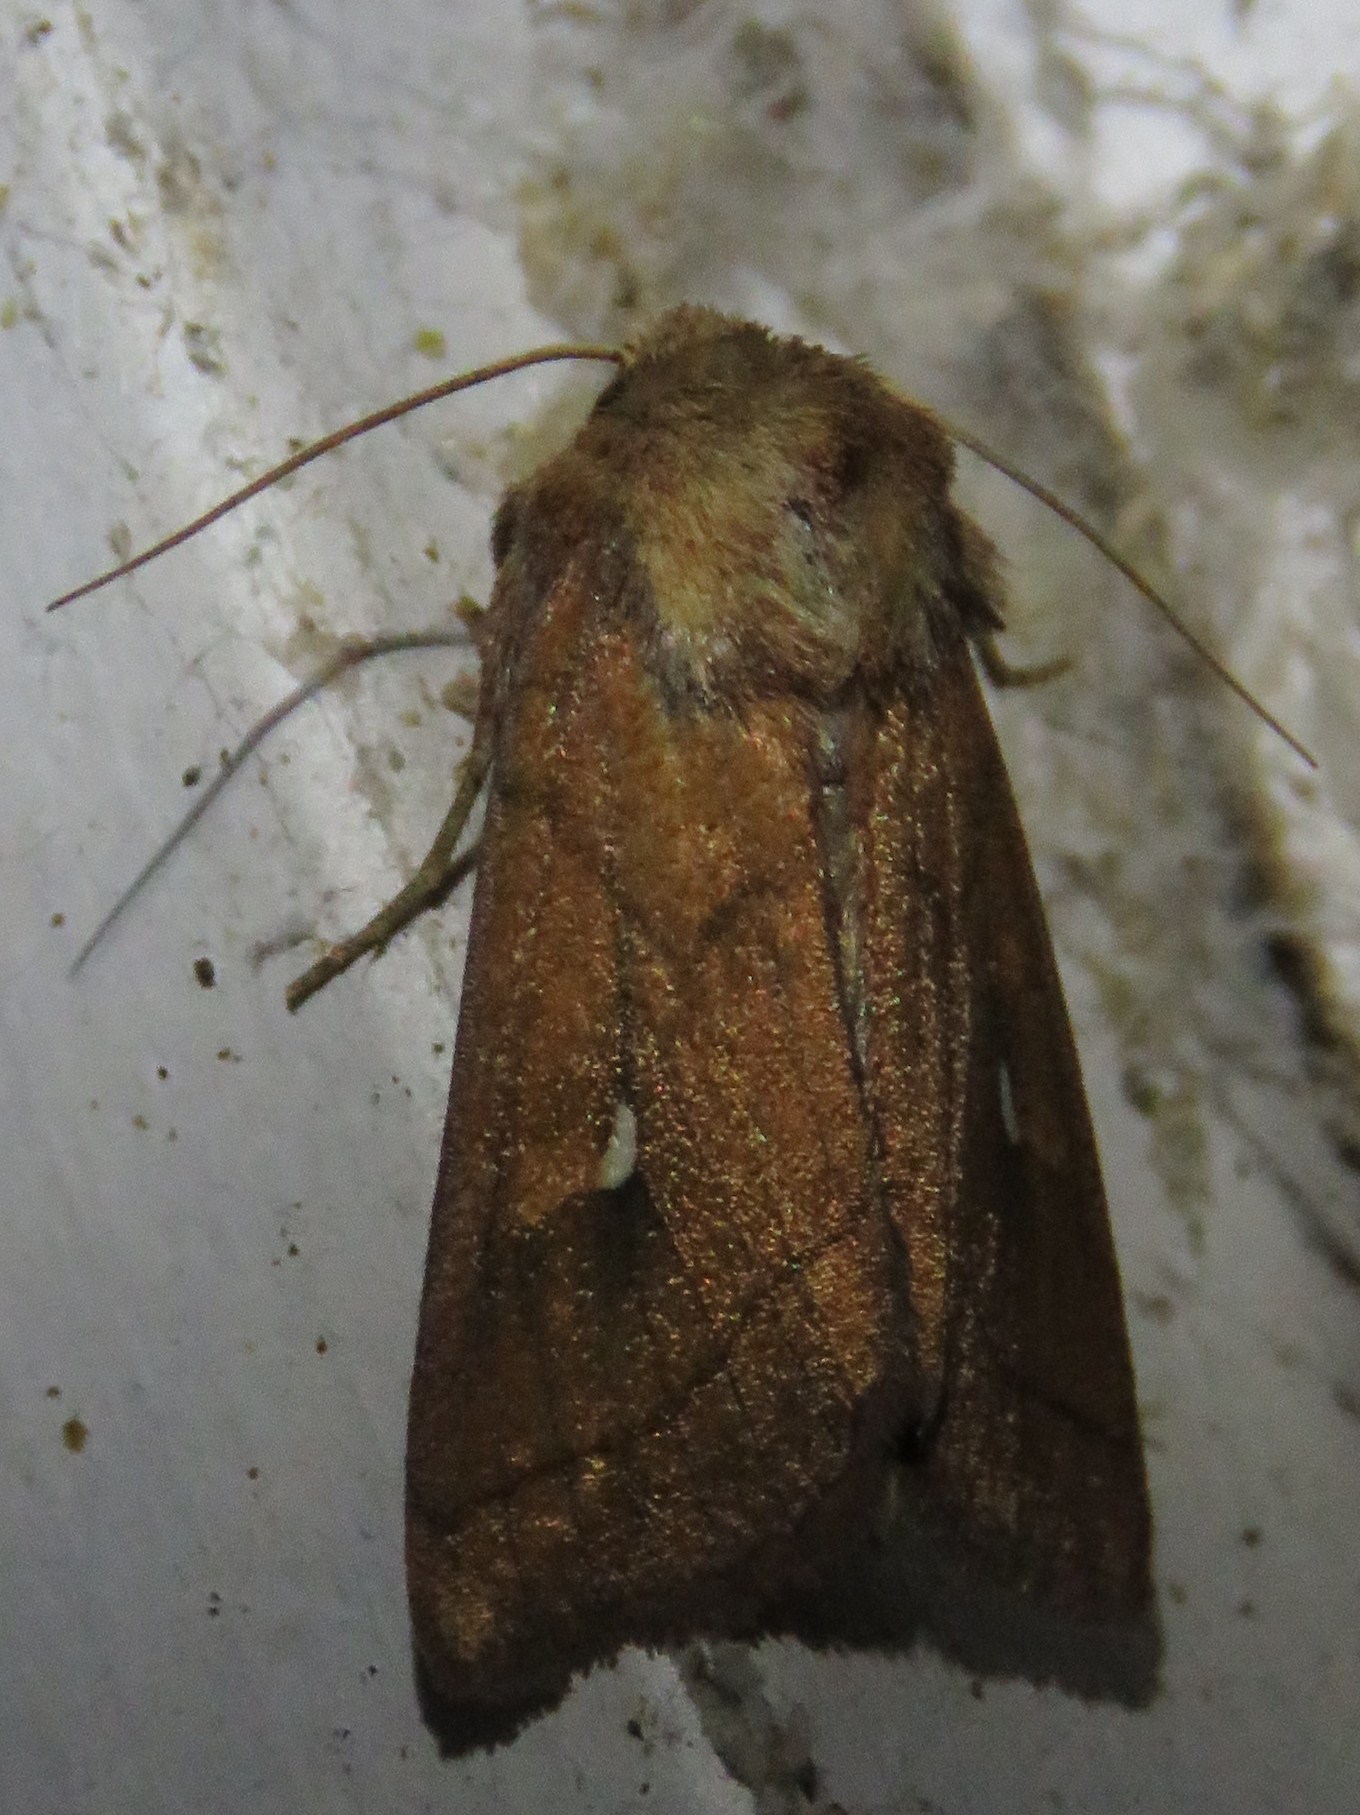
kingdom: Animalia
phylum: Arthropoda
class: Insecta
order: Lepidoptera
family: Noctuidae
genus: Mythimna
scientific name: Mythimna conigera
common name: Brown-line bright-eye
